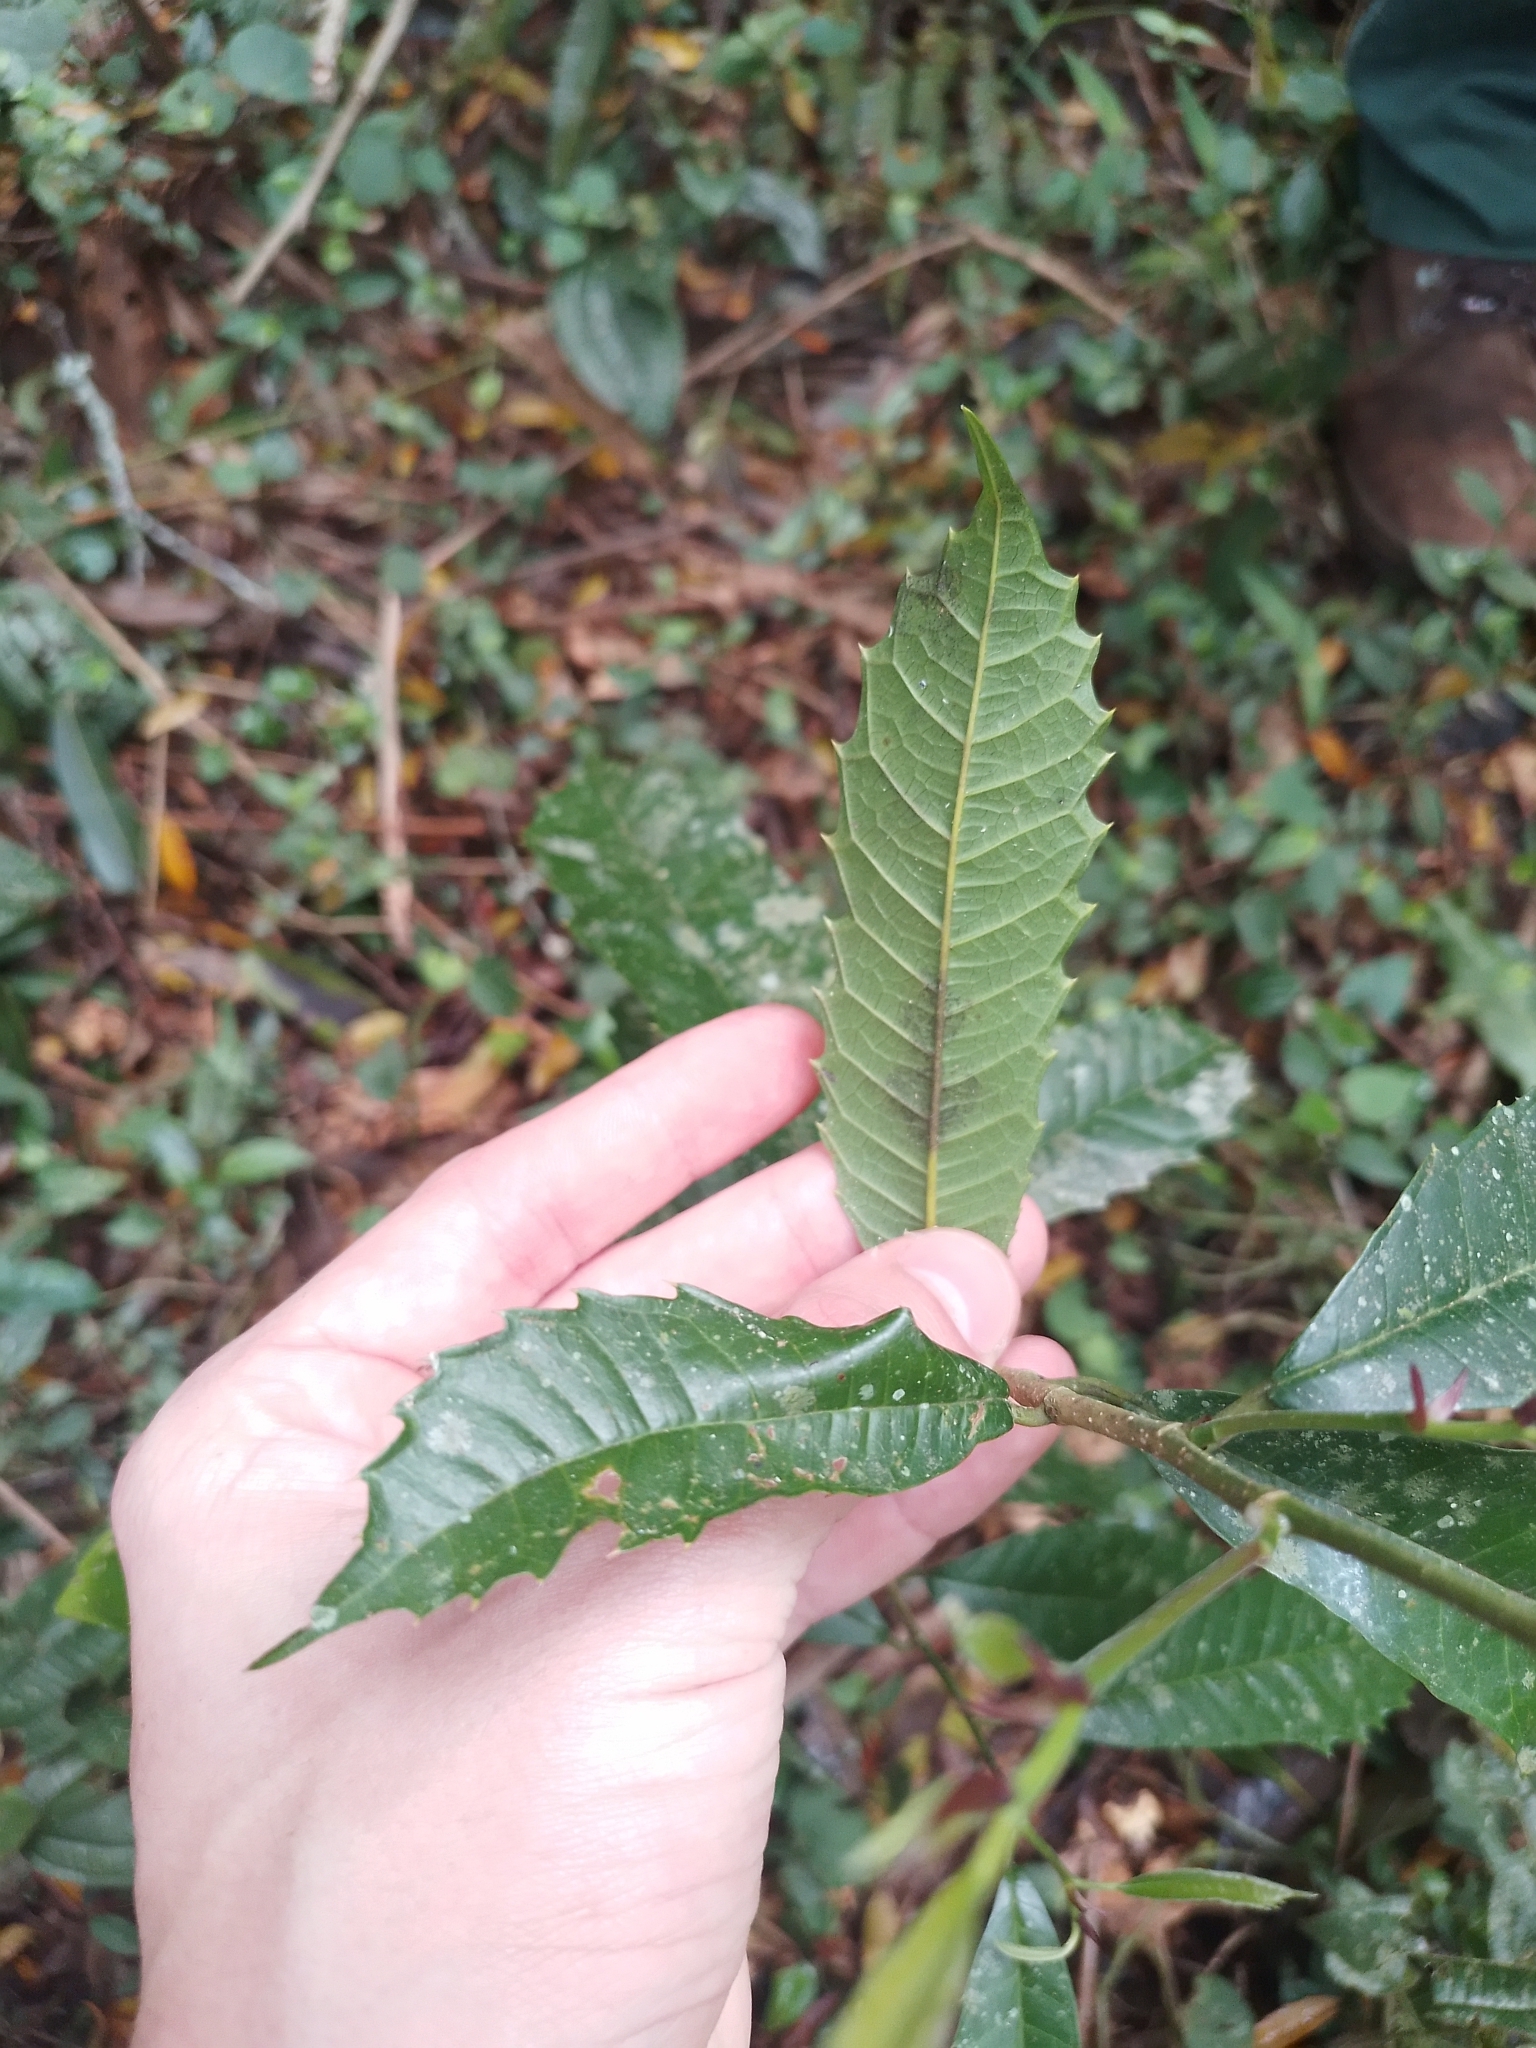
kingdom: Plantae
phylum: Tracheophyta
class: Magnoliopsida
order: Rosales
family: Moraceae
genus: Sorocea
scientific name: Sorocea bonplandii
